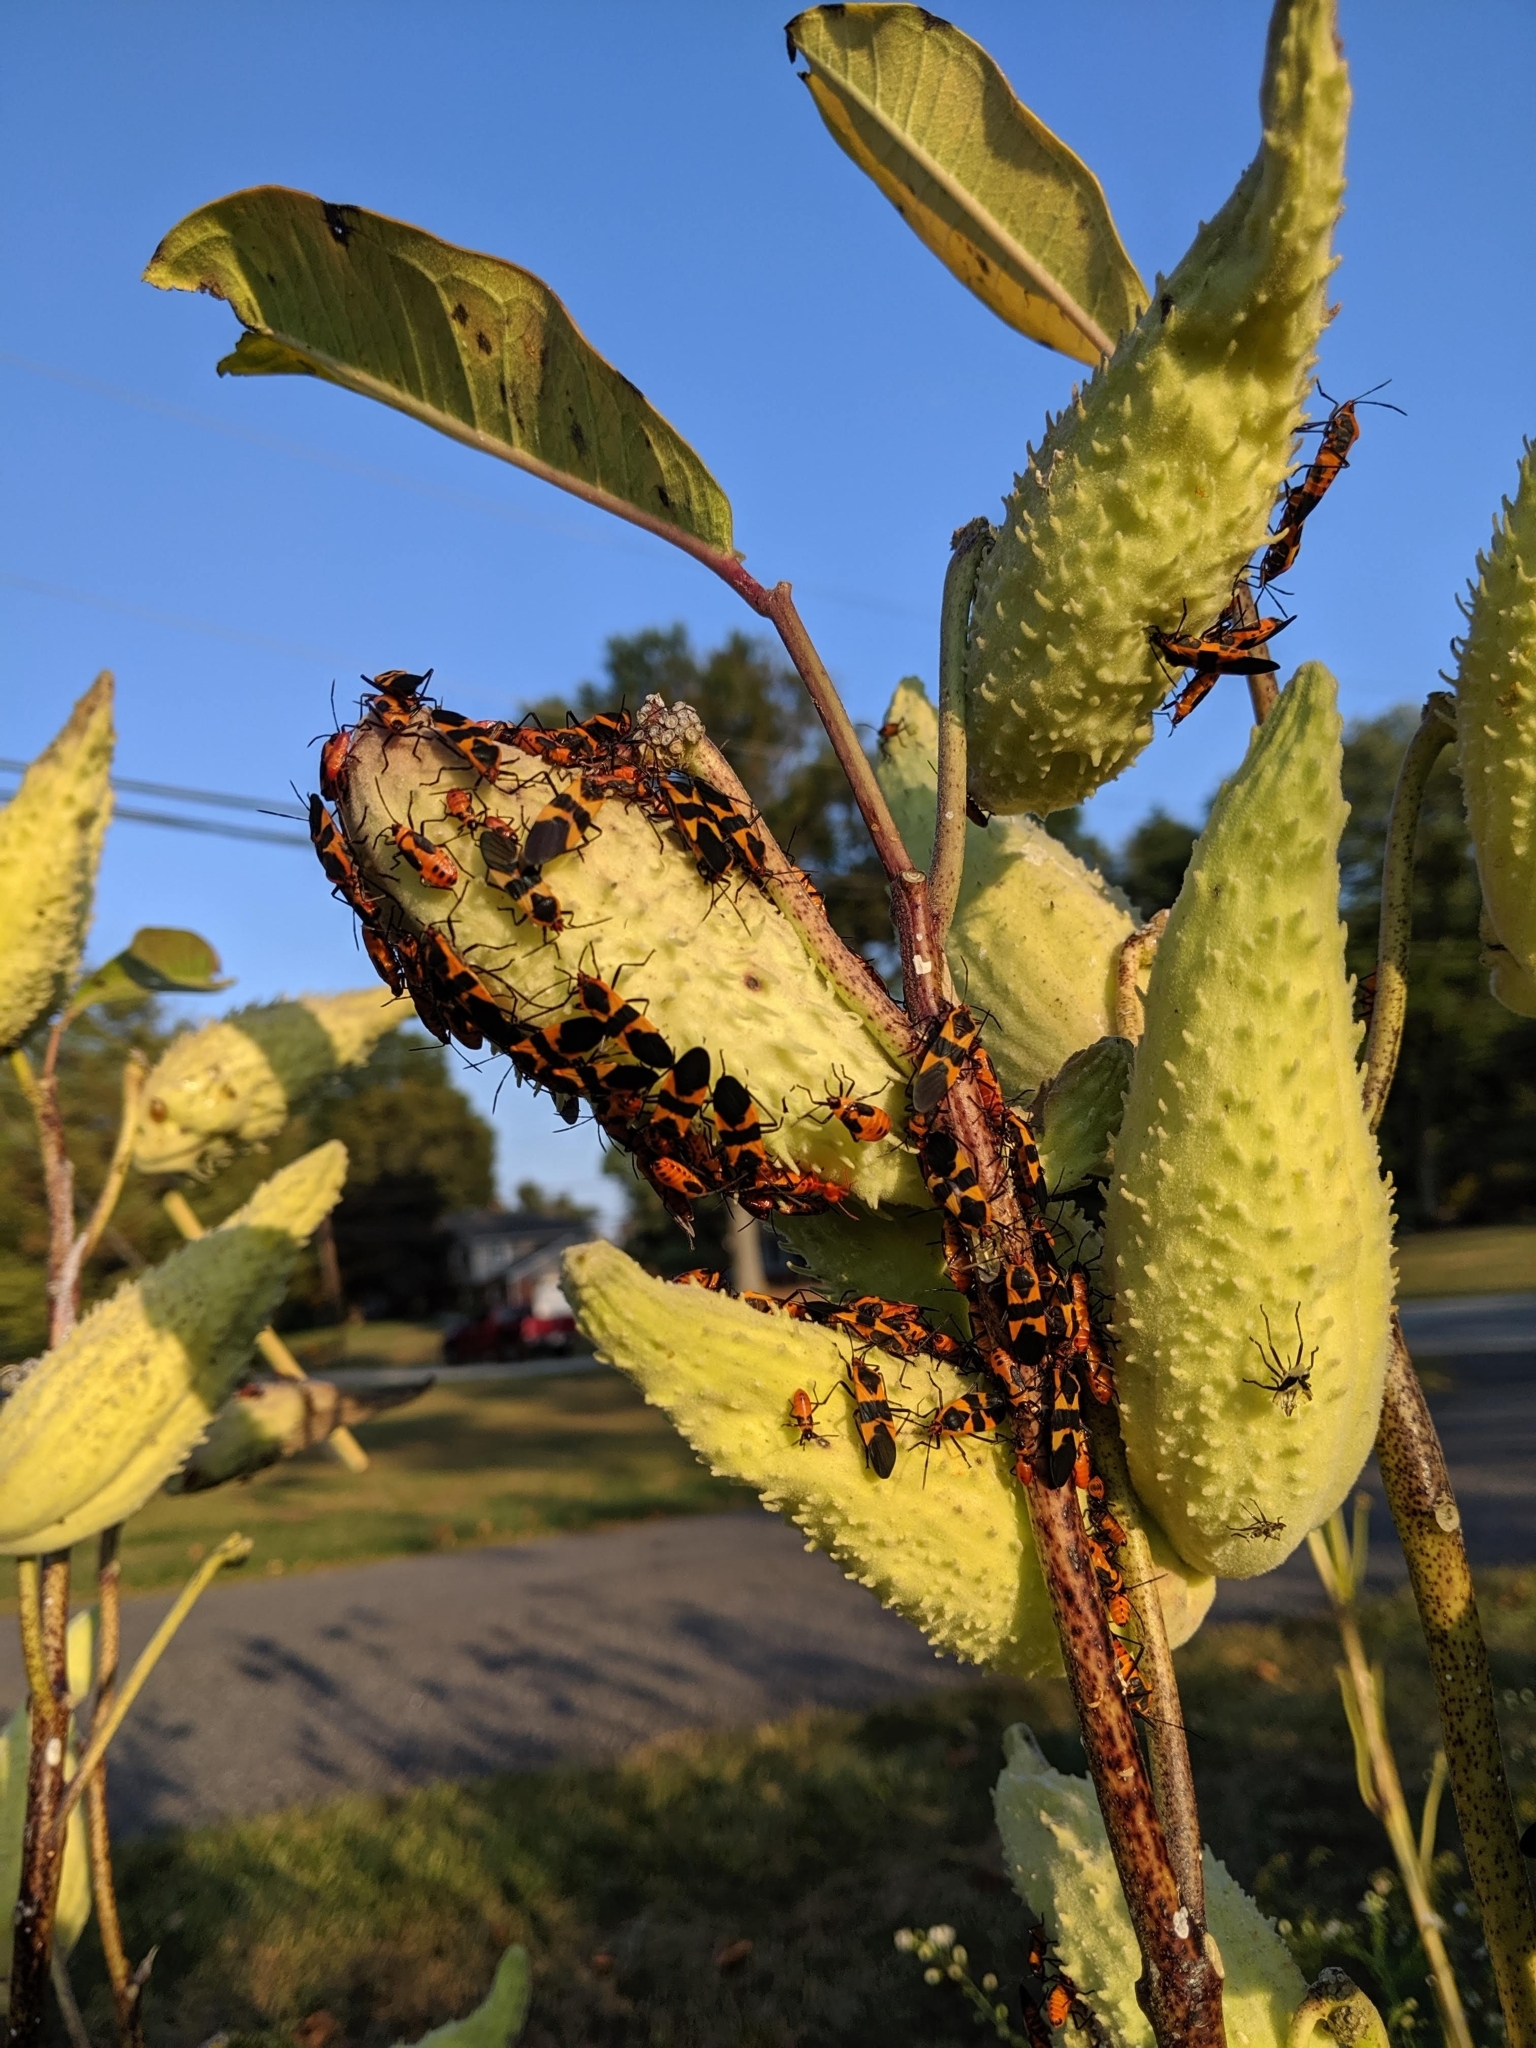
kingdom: Animalia
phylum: Arthropoda
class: Insecta
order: Hemiptera
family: Lygaeidae
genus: Oncopeltus
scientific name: Oncopeltus fasciatus
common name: Large milkweed bug
